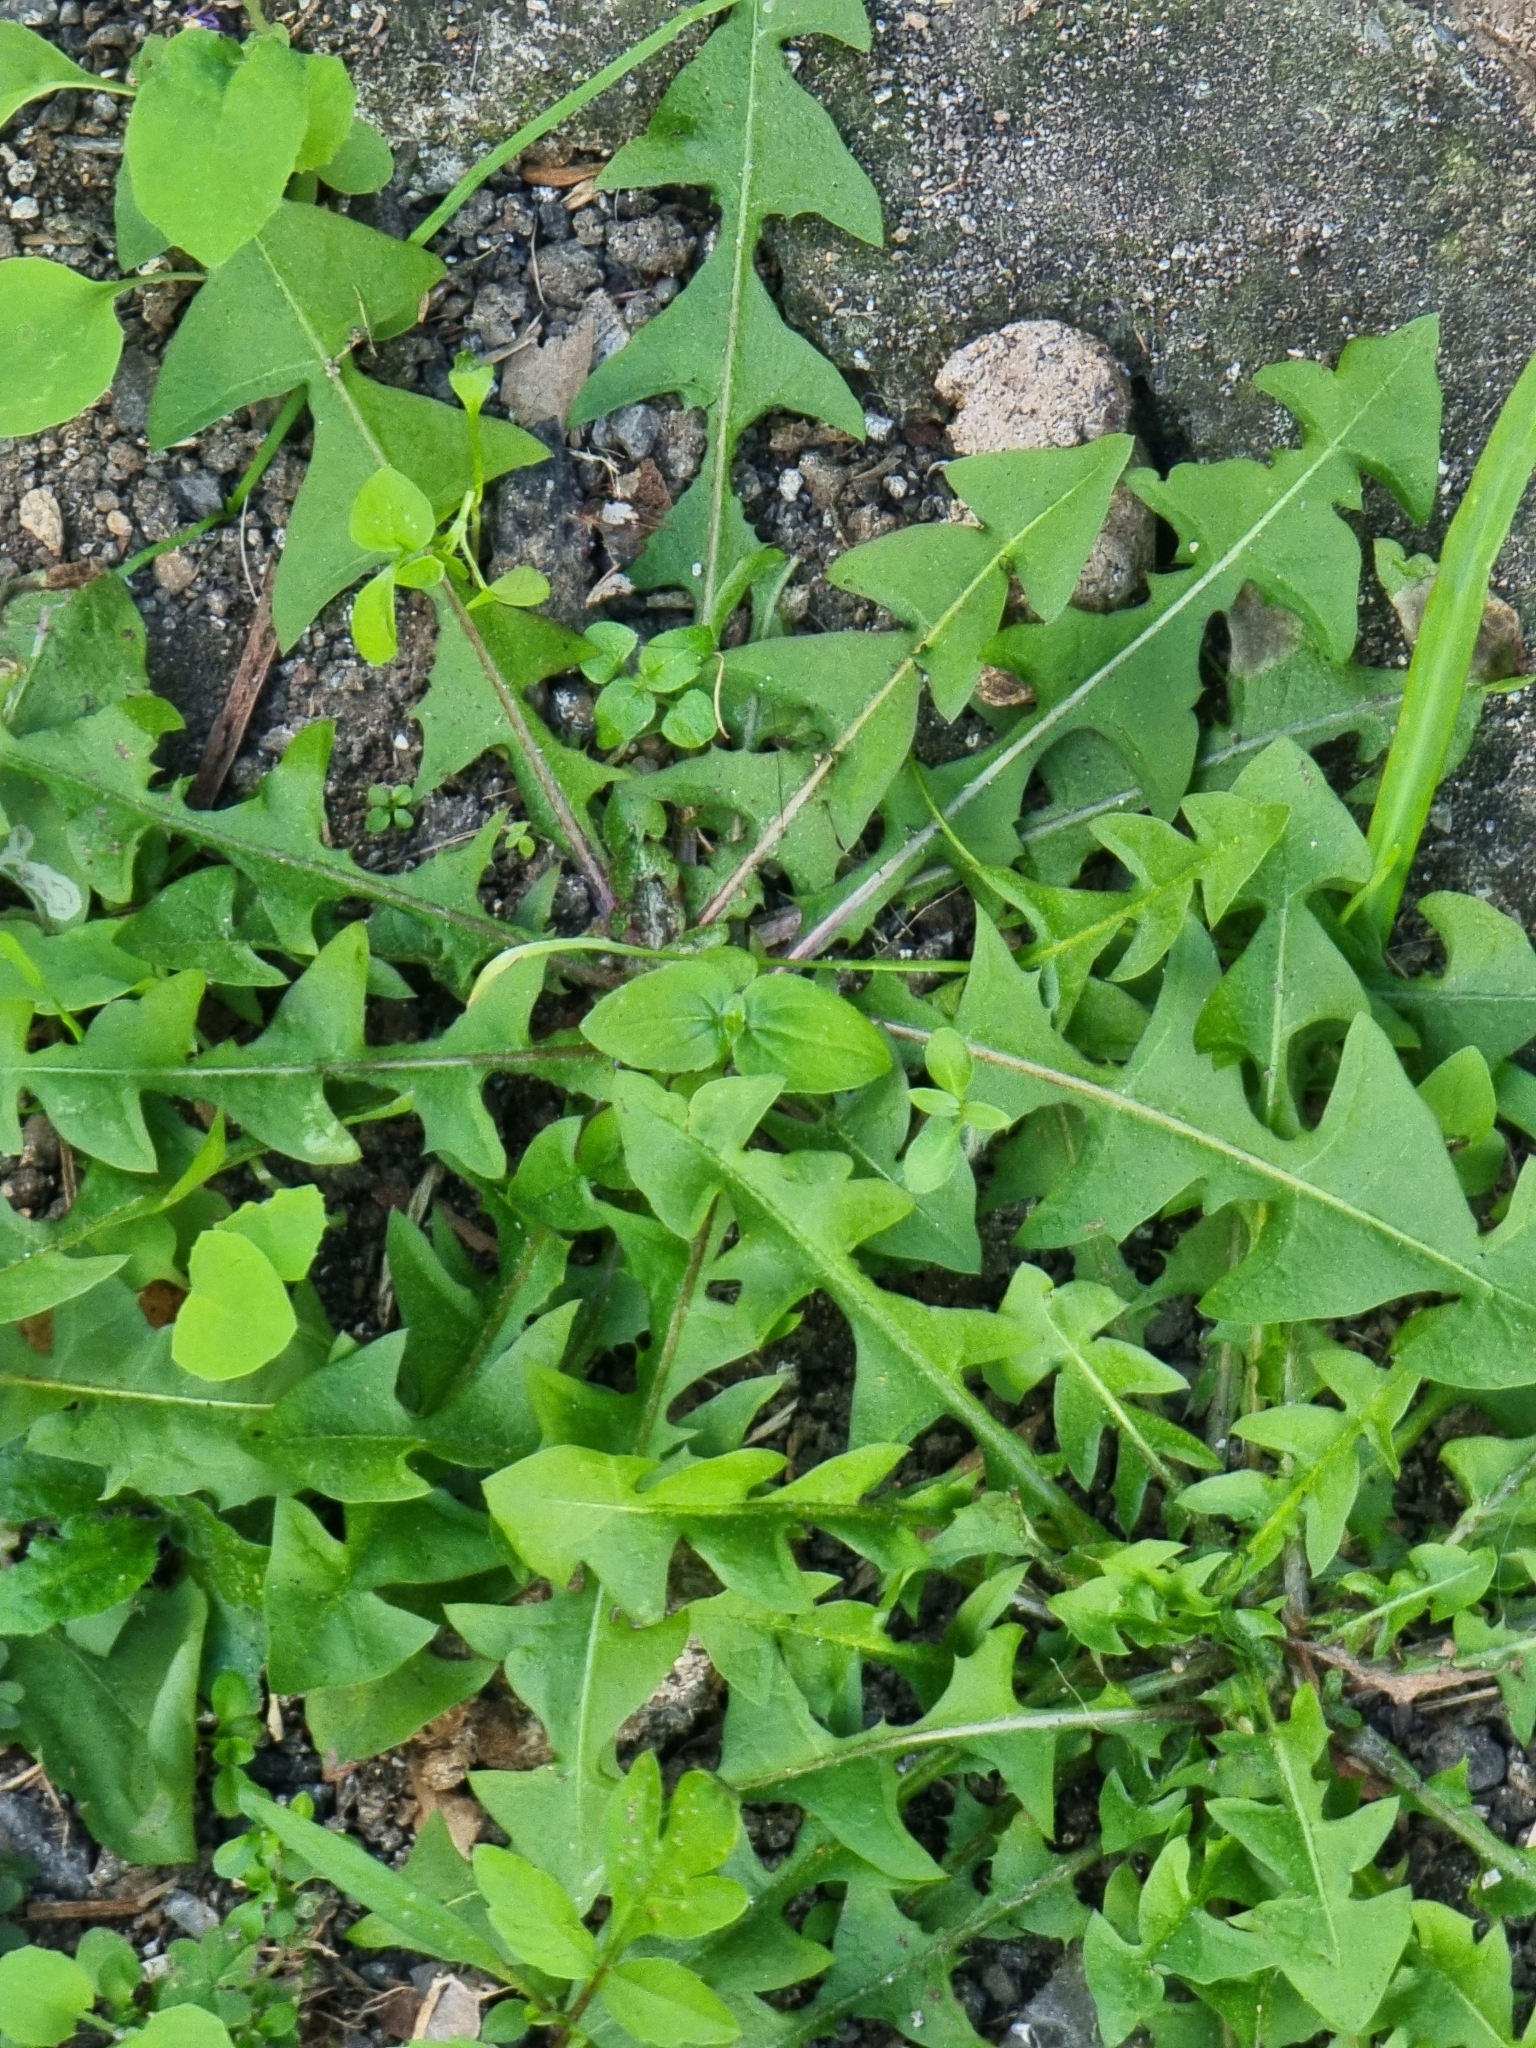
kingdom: Plantae
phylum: Tracheophyta
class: Magnoliopsida
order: Asterales
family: Asteraceae
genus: Taraxacum
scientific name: Taraxacum officinale
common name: Common dandelion
